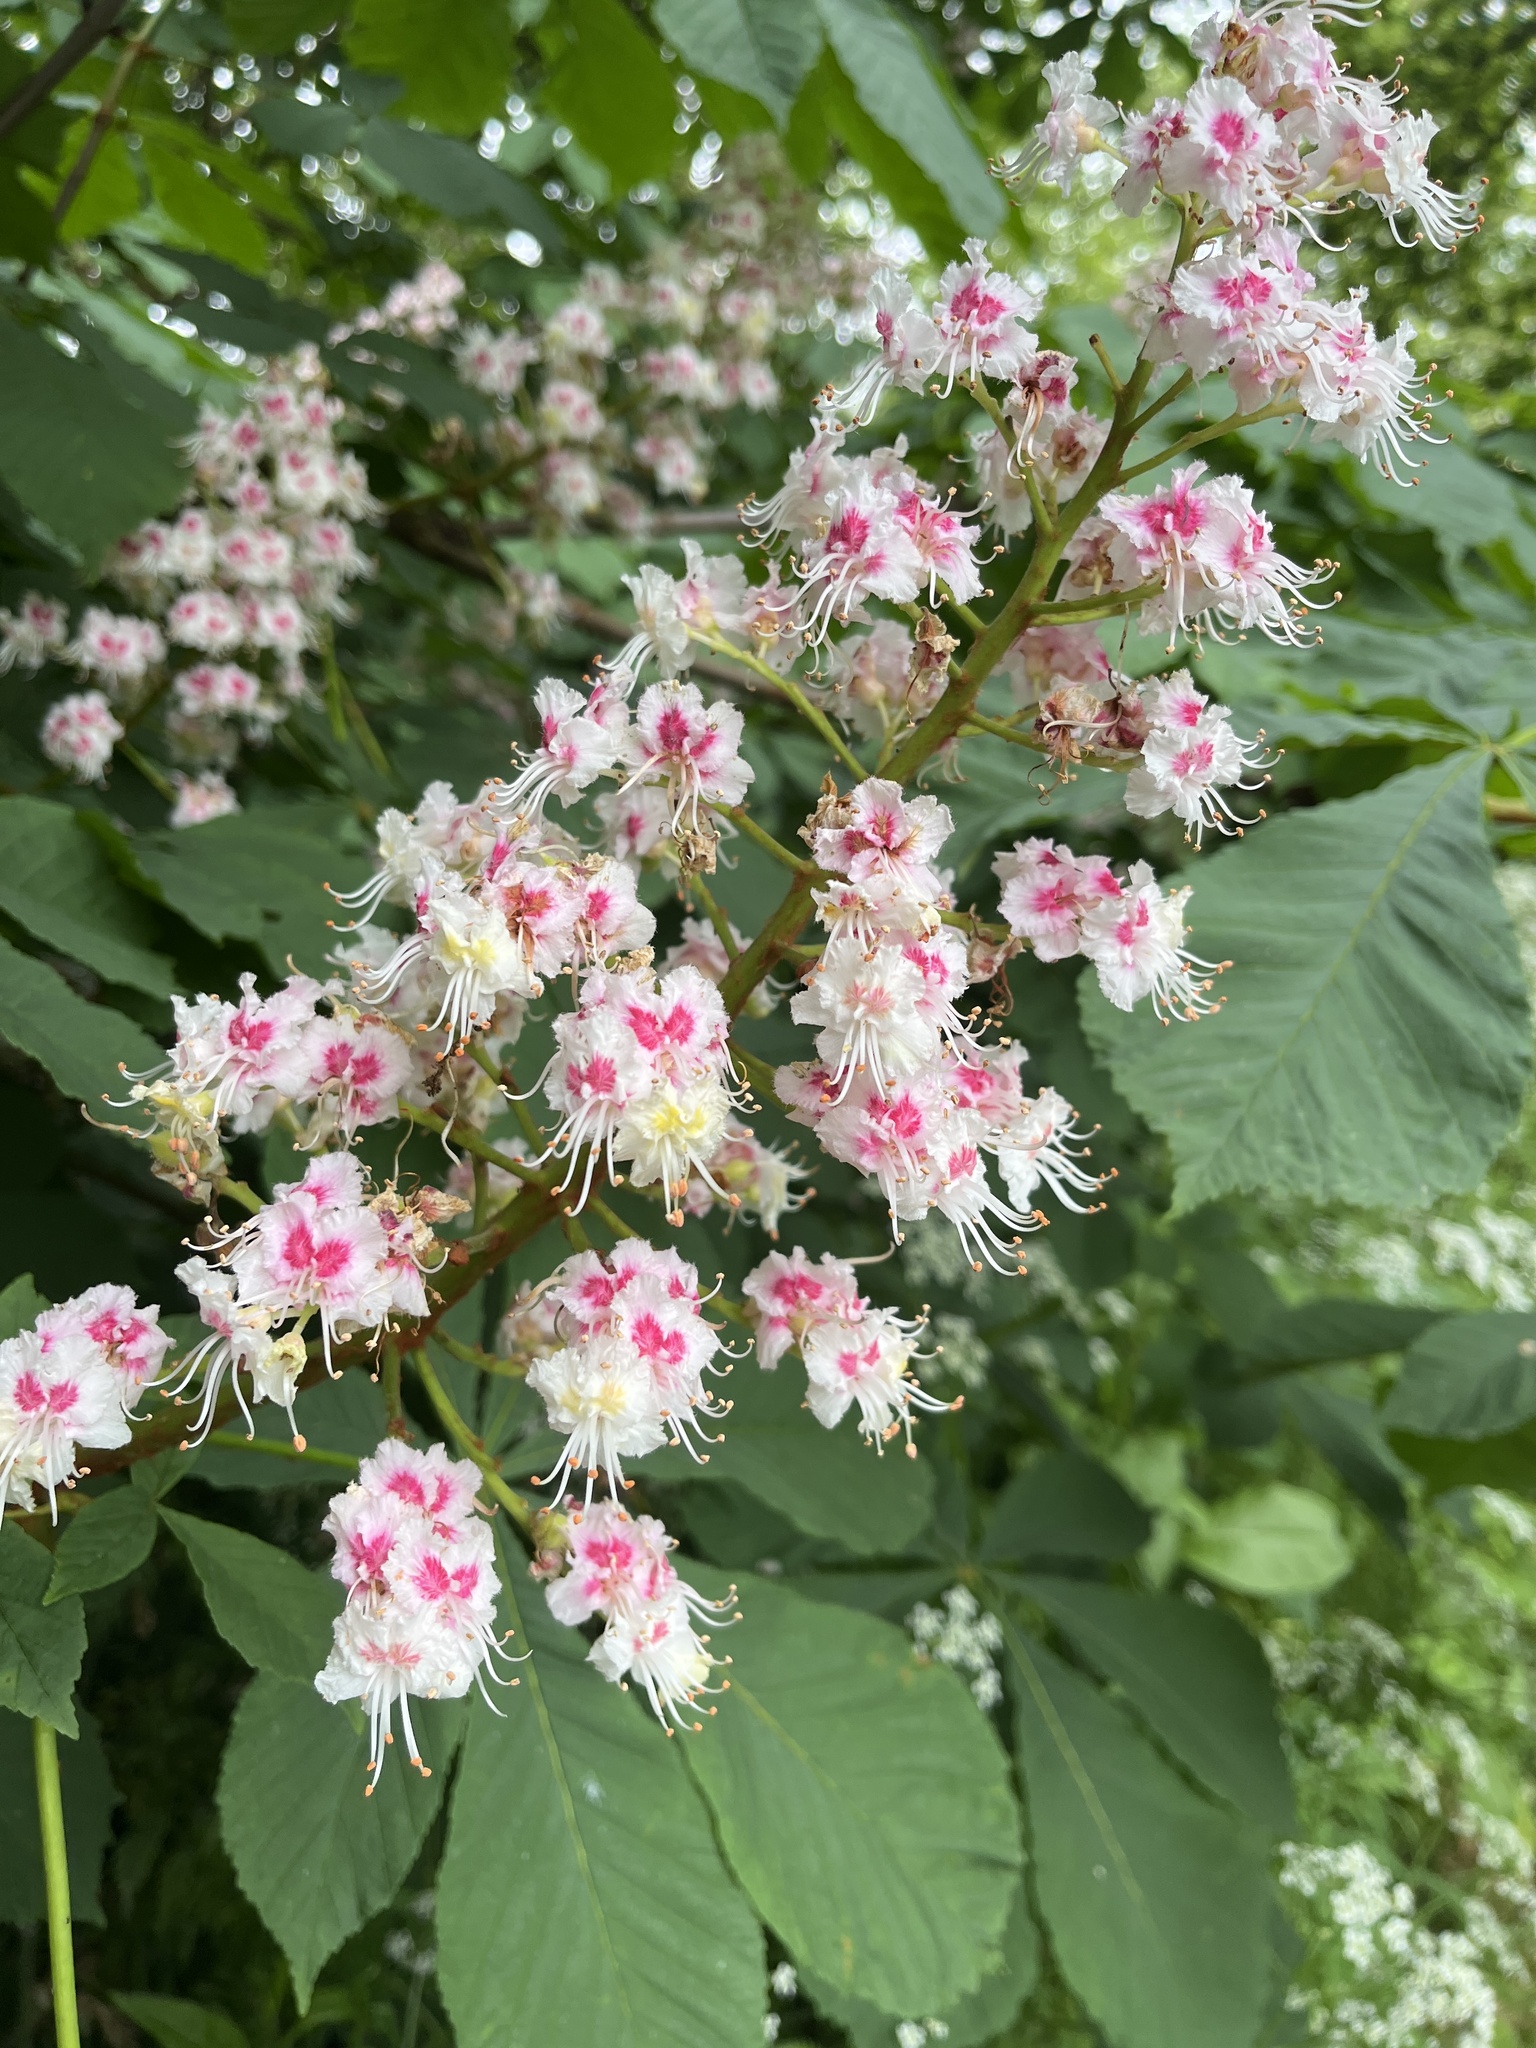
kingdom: Plantae
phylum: Tracheophyta
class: Magnoliopsida
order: Sapindales
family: Sapindaceae
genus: Aesculus
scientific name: Aesculus hippocastanum
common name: Horse-chestnut
